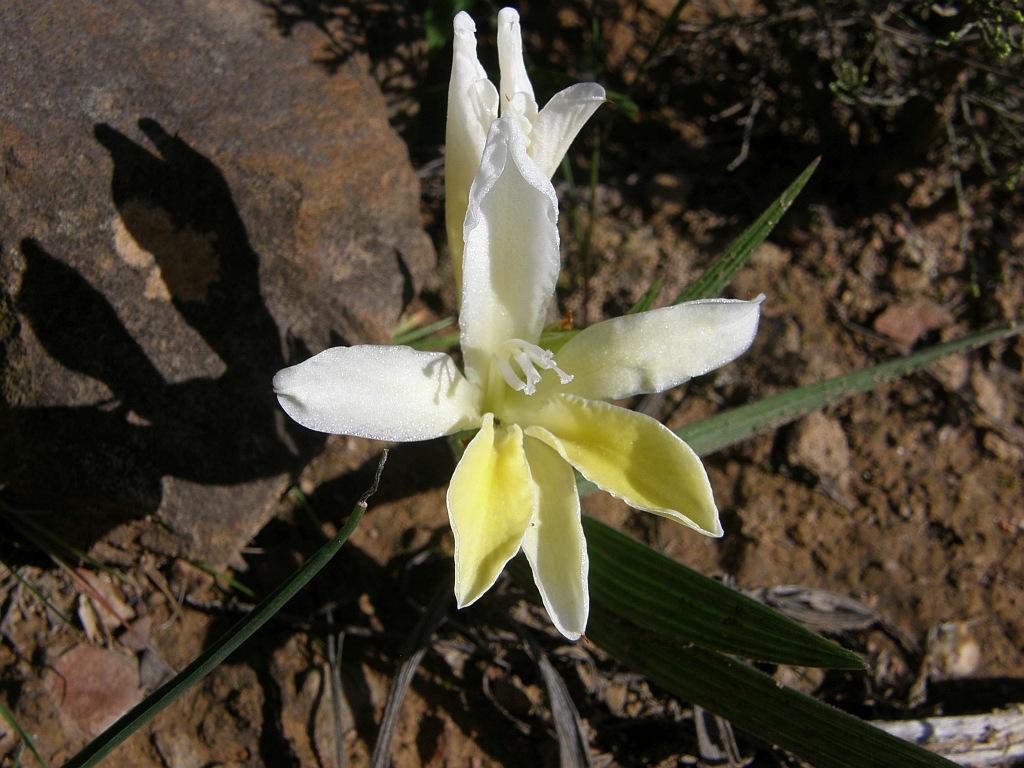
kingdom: Plantae
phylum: Tracheophyta
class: Liliopsida
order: Asparagales
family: Iridaceae
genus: Babiana
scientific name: Babiana patula
